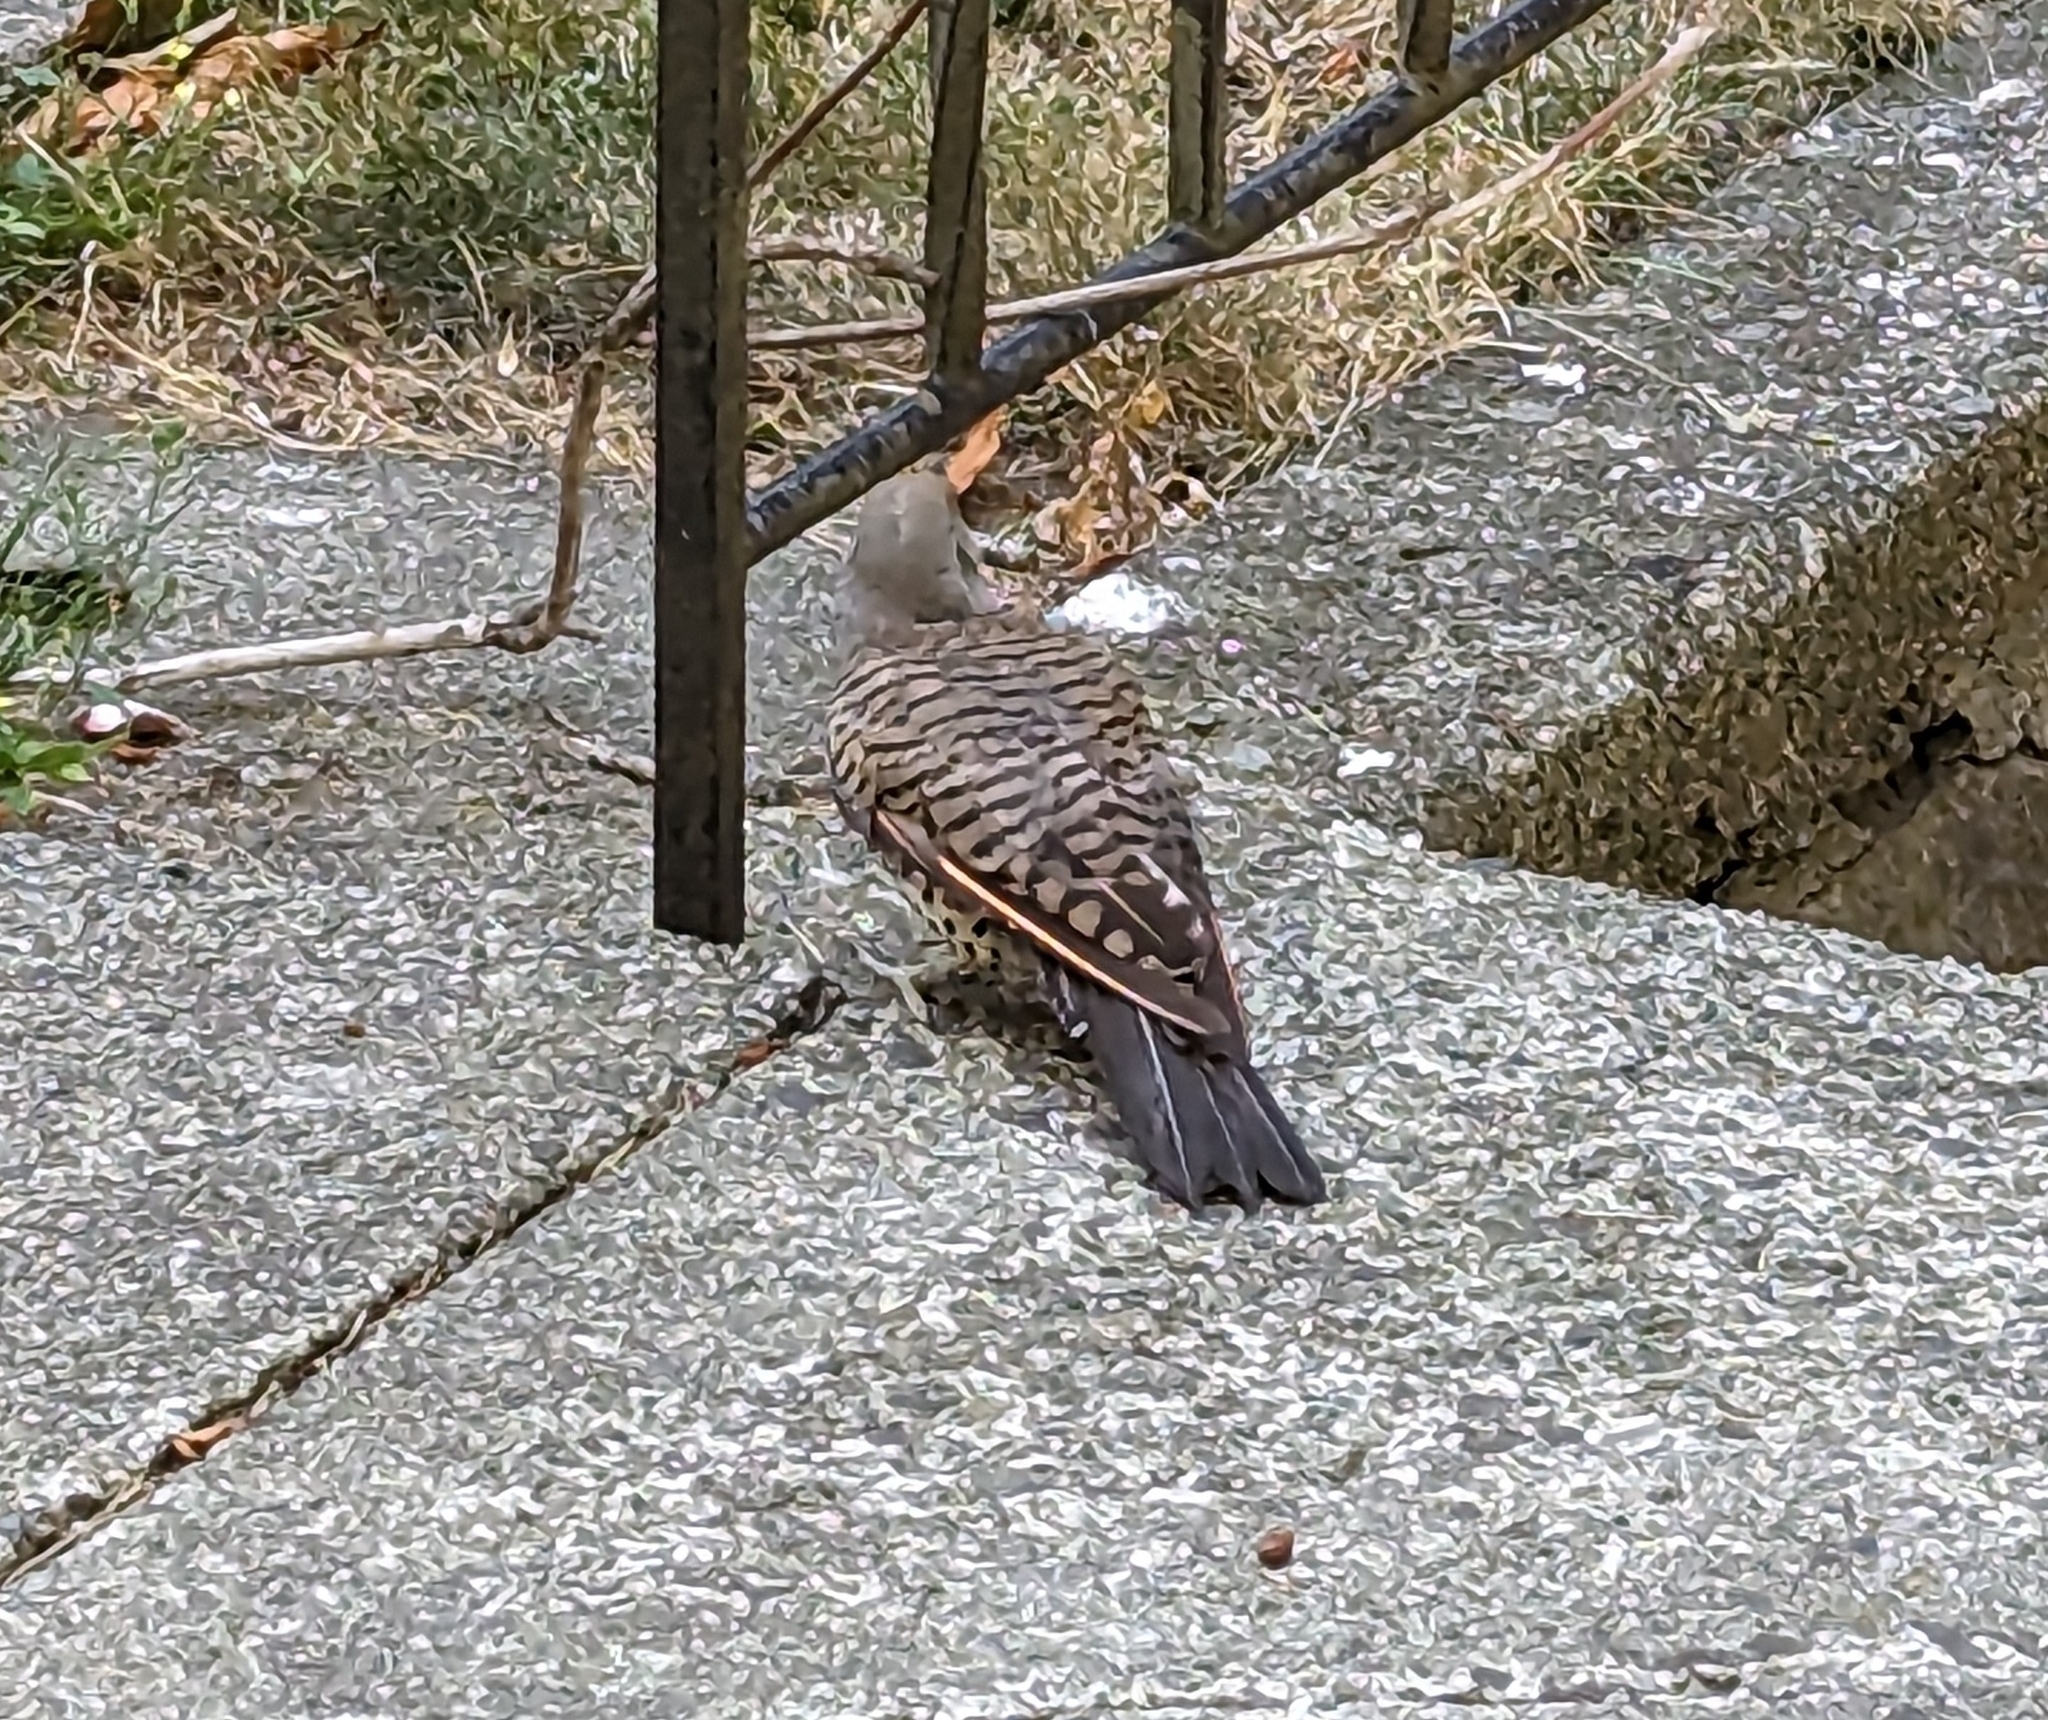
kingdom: Animalia
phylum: Chordata
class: Aves
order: Piciformes
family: Picidae
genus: Colaptes
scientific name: Colaptes auratus
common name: Northern flicker
